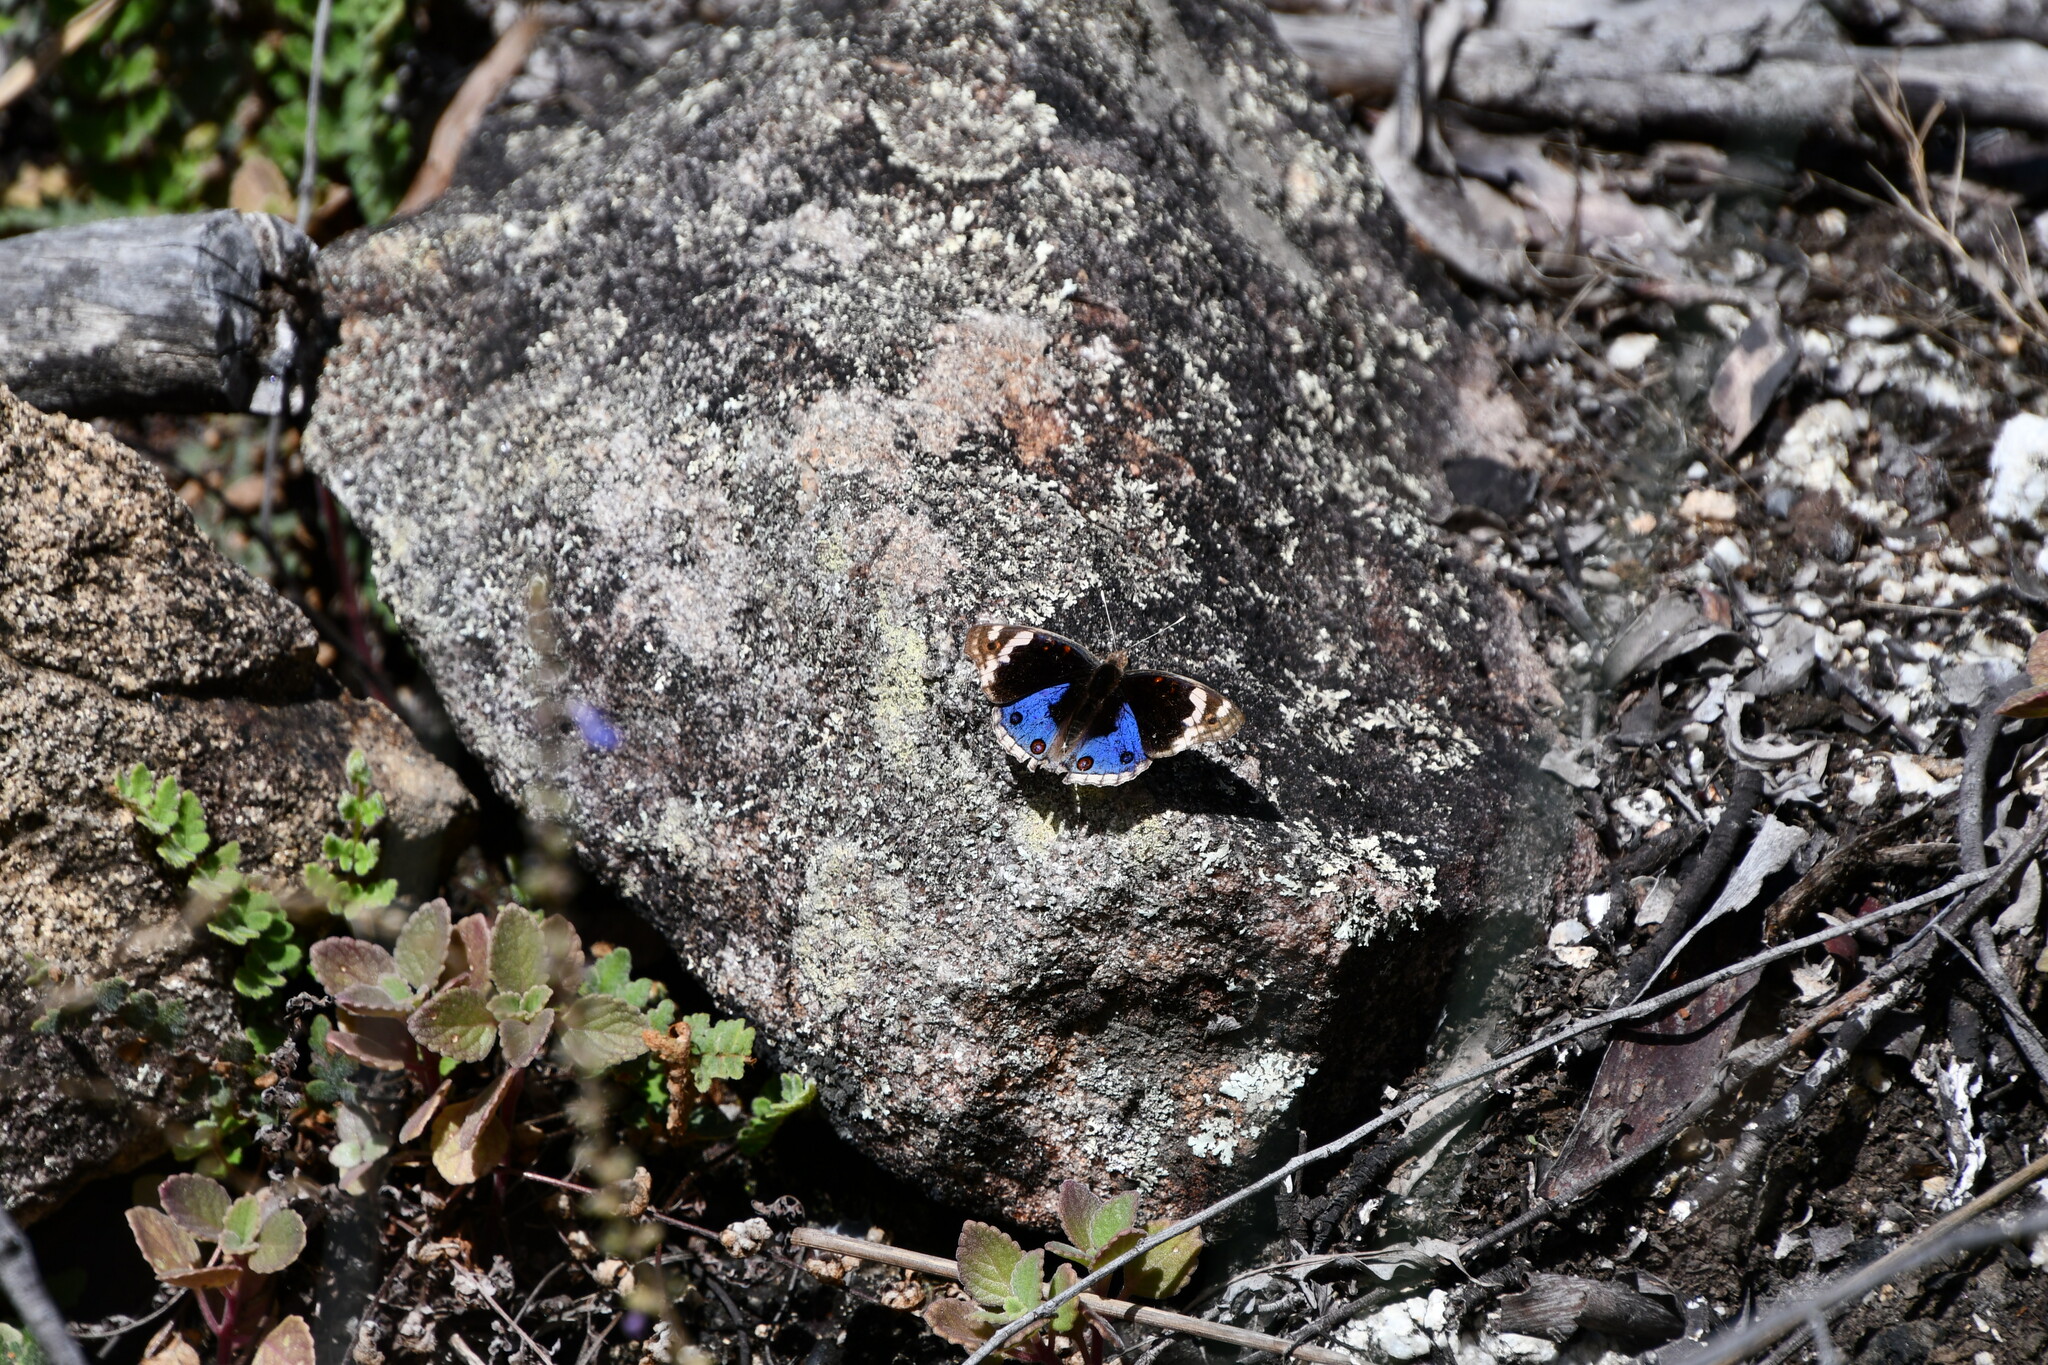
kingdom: Animalia
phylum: Arthropoda
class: Insecta
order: Lepidoptera
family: Nymphalidae
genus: Junonia
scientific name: Junonia orithya
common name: Blue pansy
